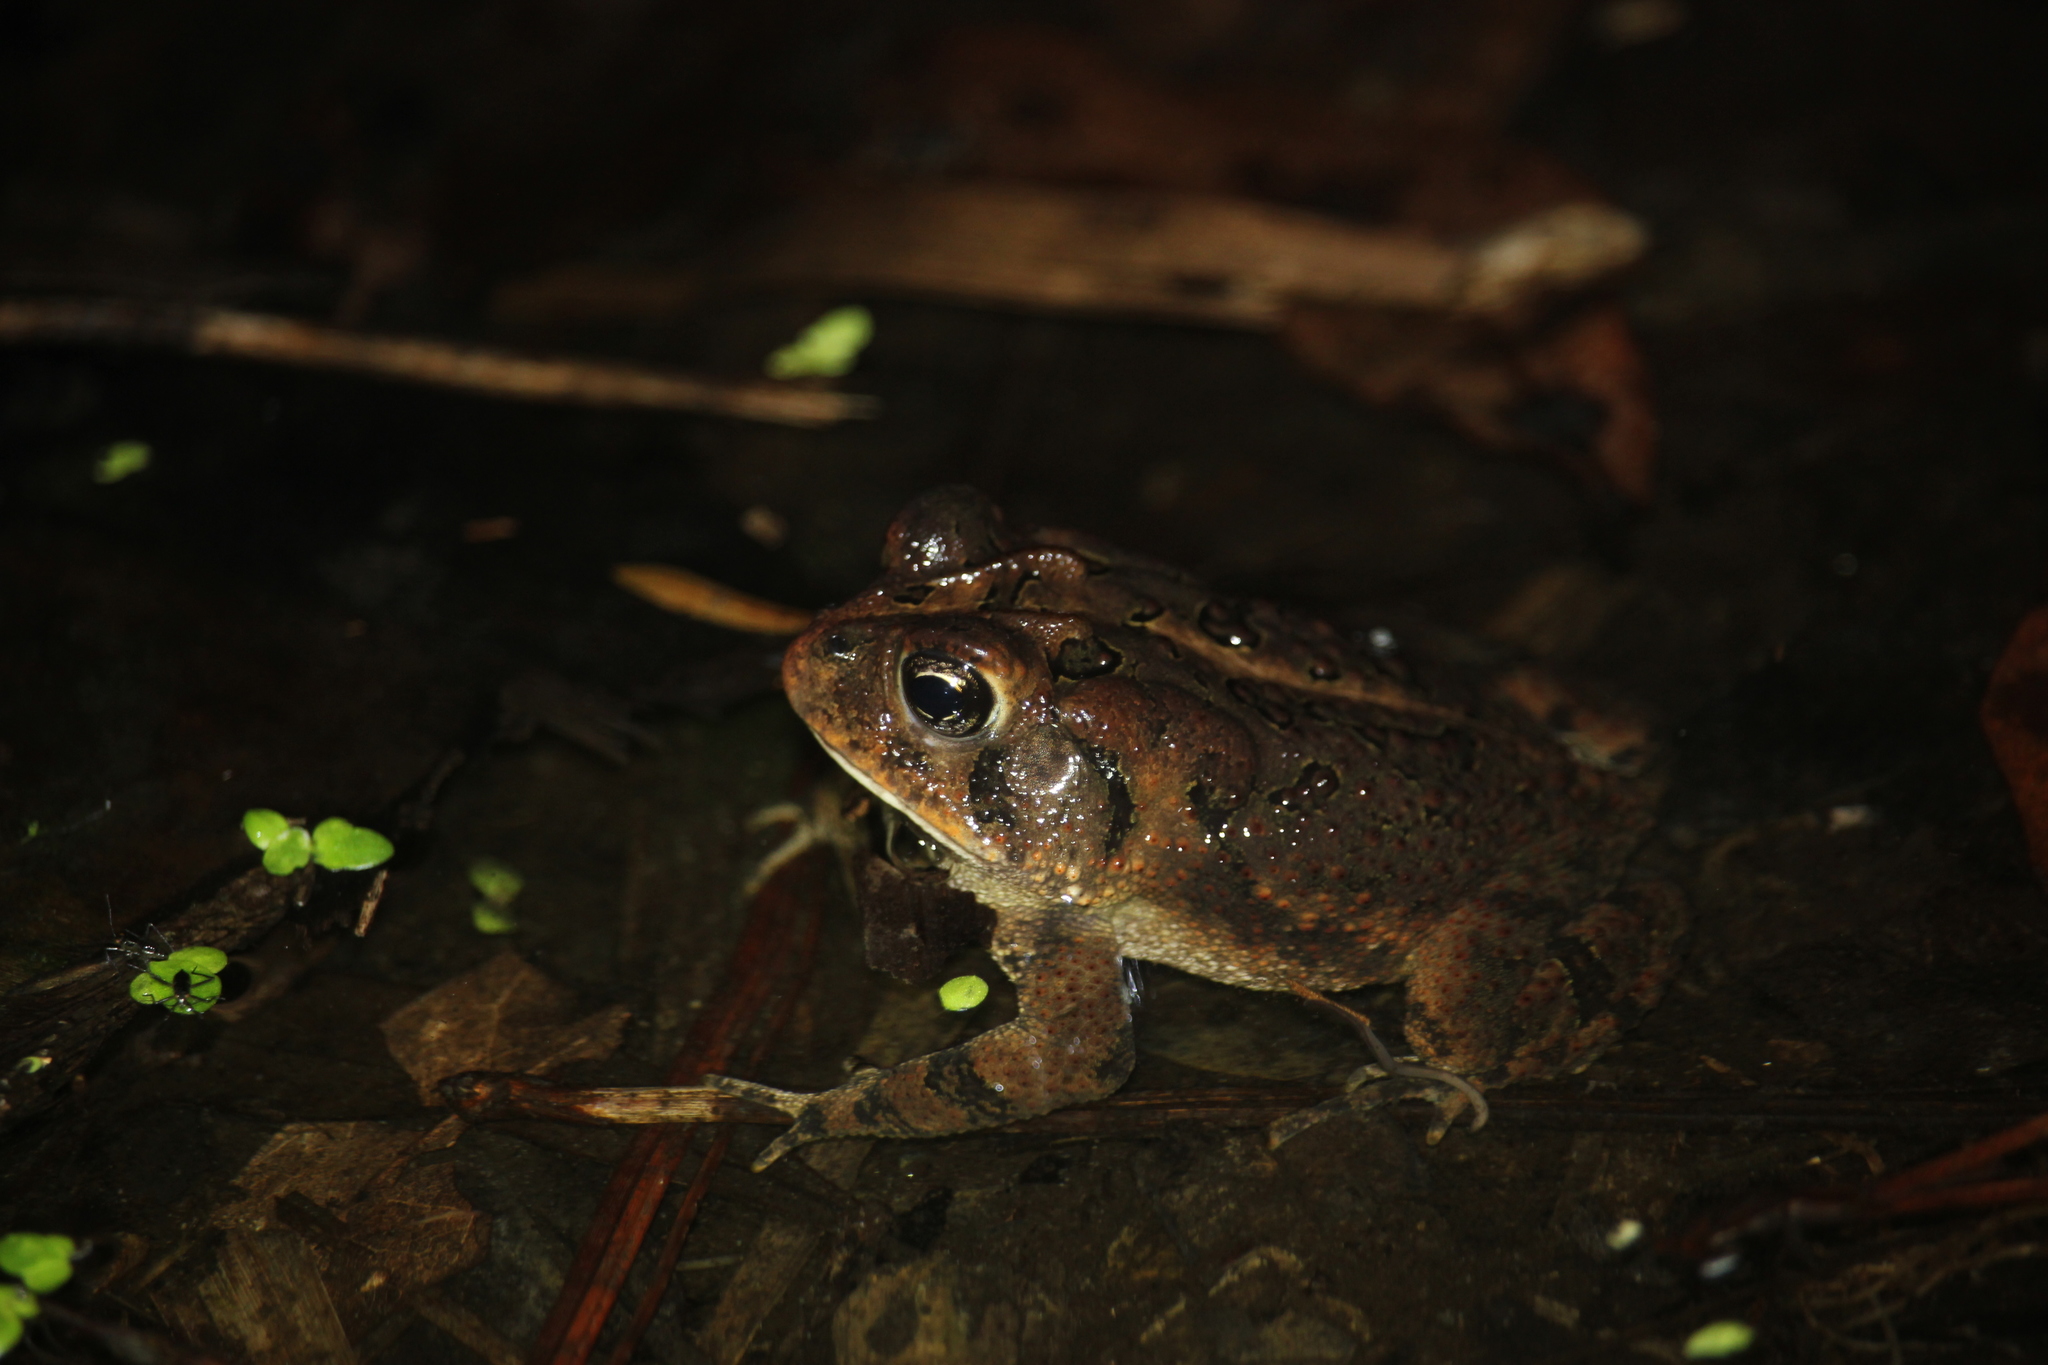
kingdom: Animalia
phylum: Chordata
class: Amphibia
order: Anura
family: Bufonidae
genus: Anaxyrus
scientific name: Anaxyrus terrestris
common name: Southern toad
